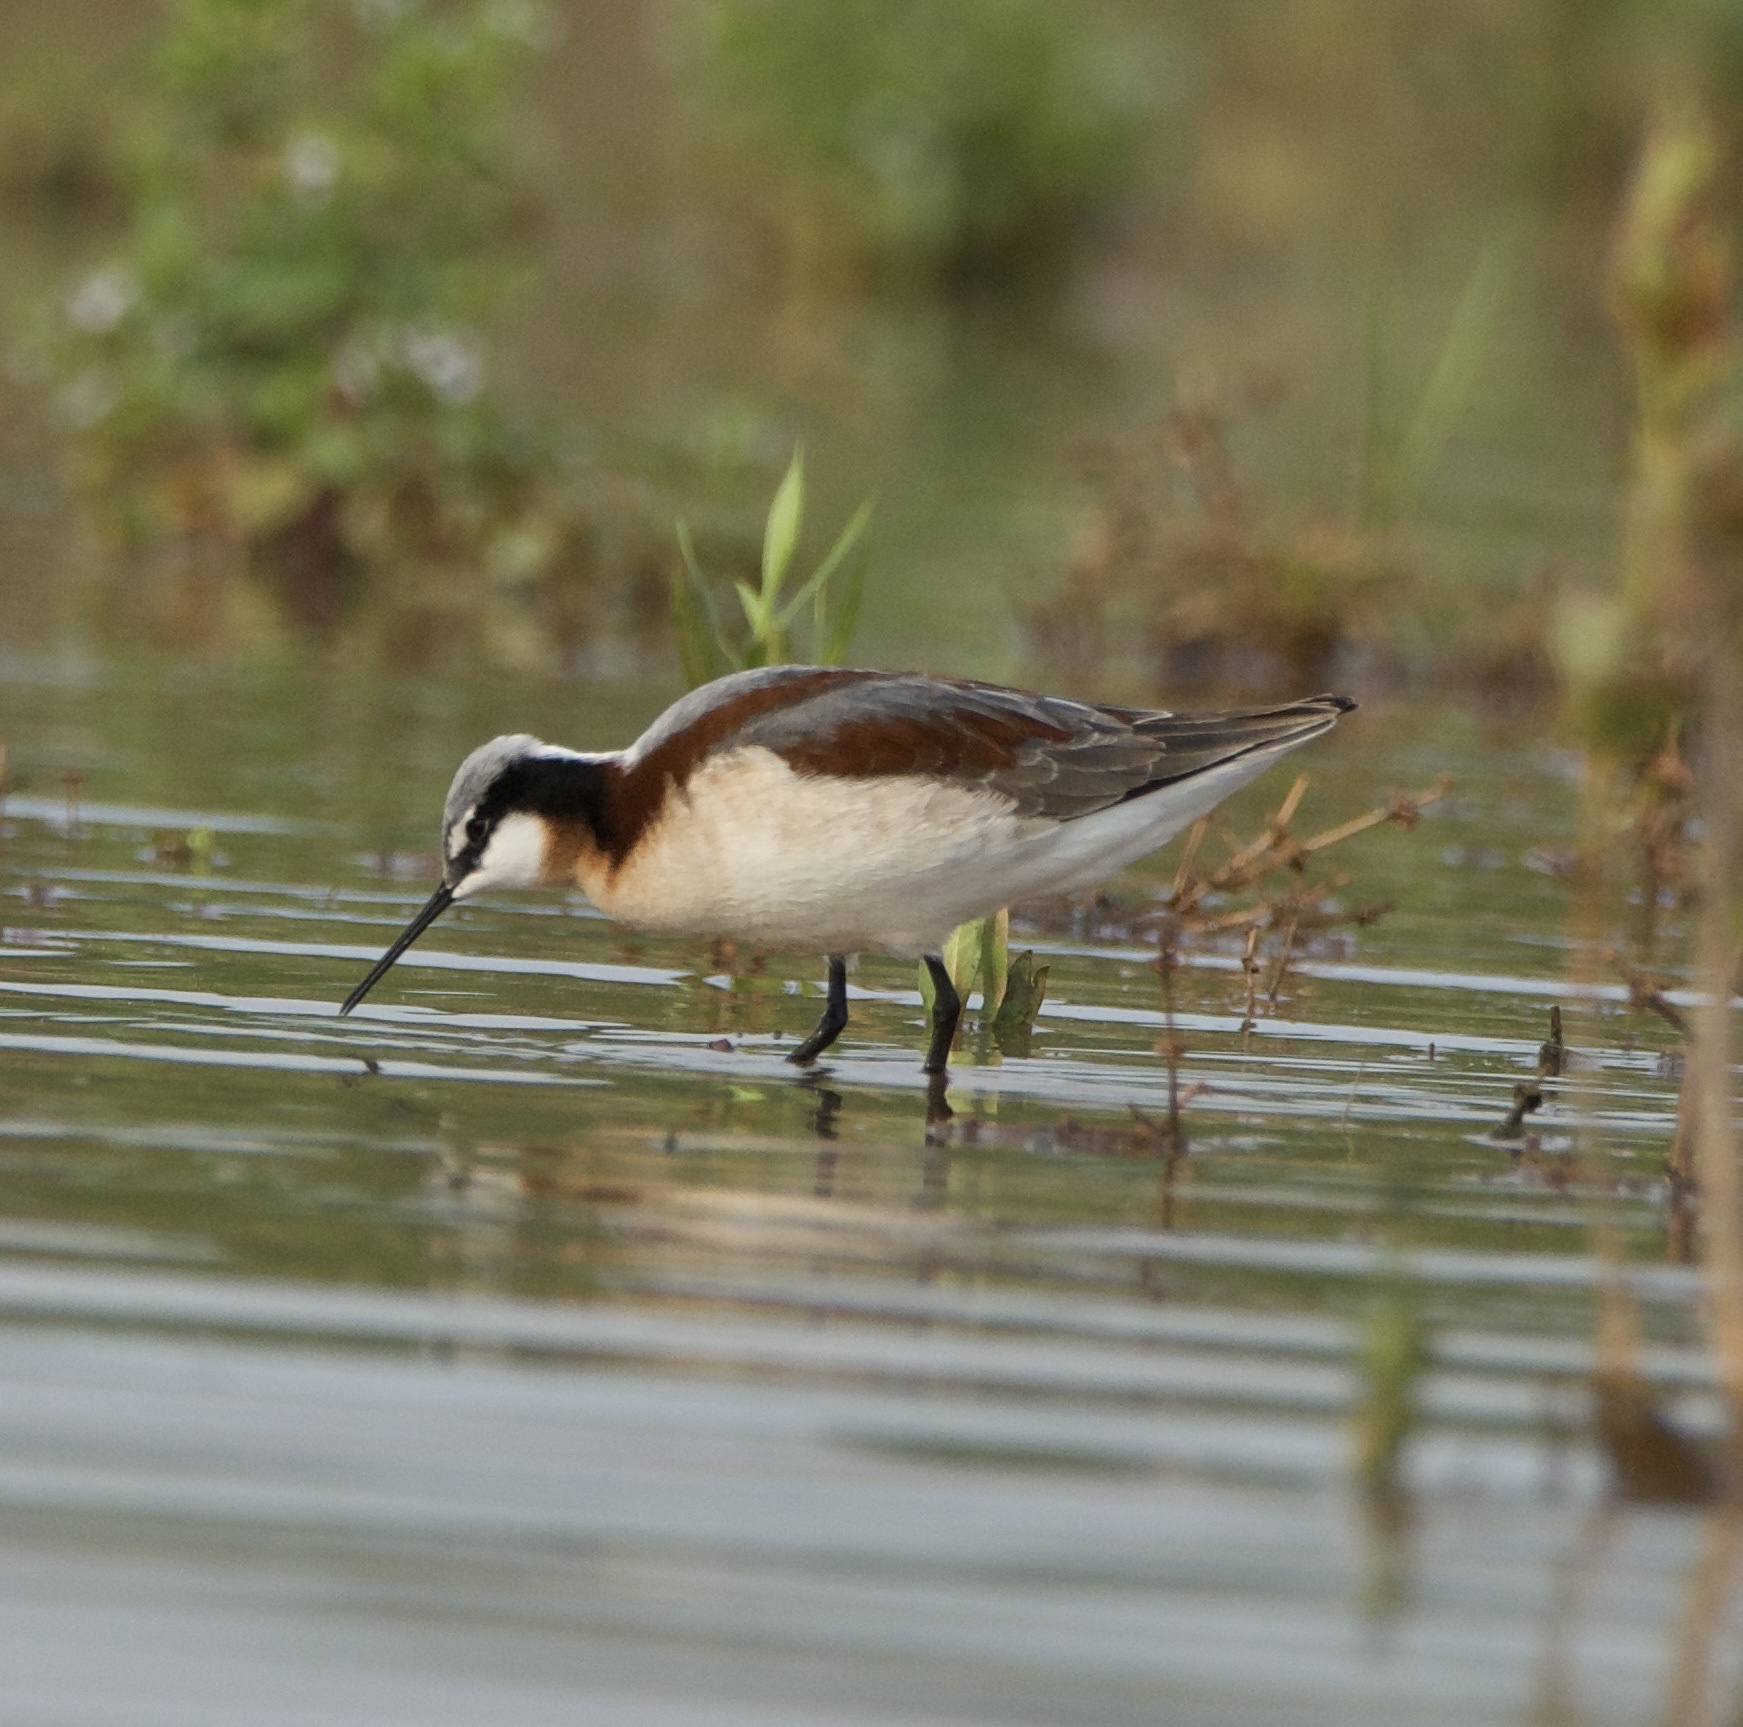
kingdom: Animalia
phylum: Chordata
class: Aves
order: Charadriiformes
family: Scolopacidae
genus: Phalaropus
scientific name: Phalaropus tricolor
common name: Wilson's phalarope
